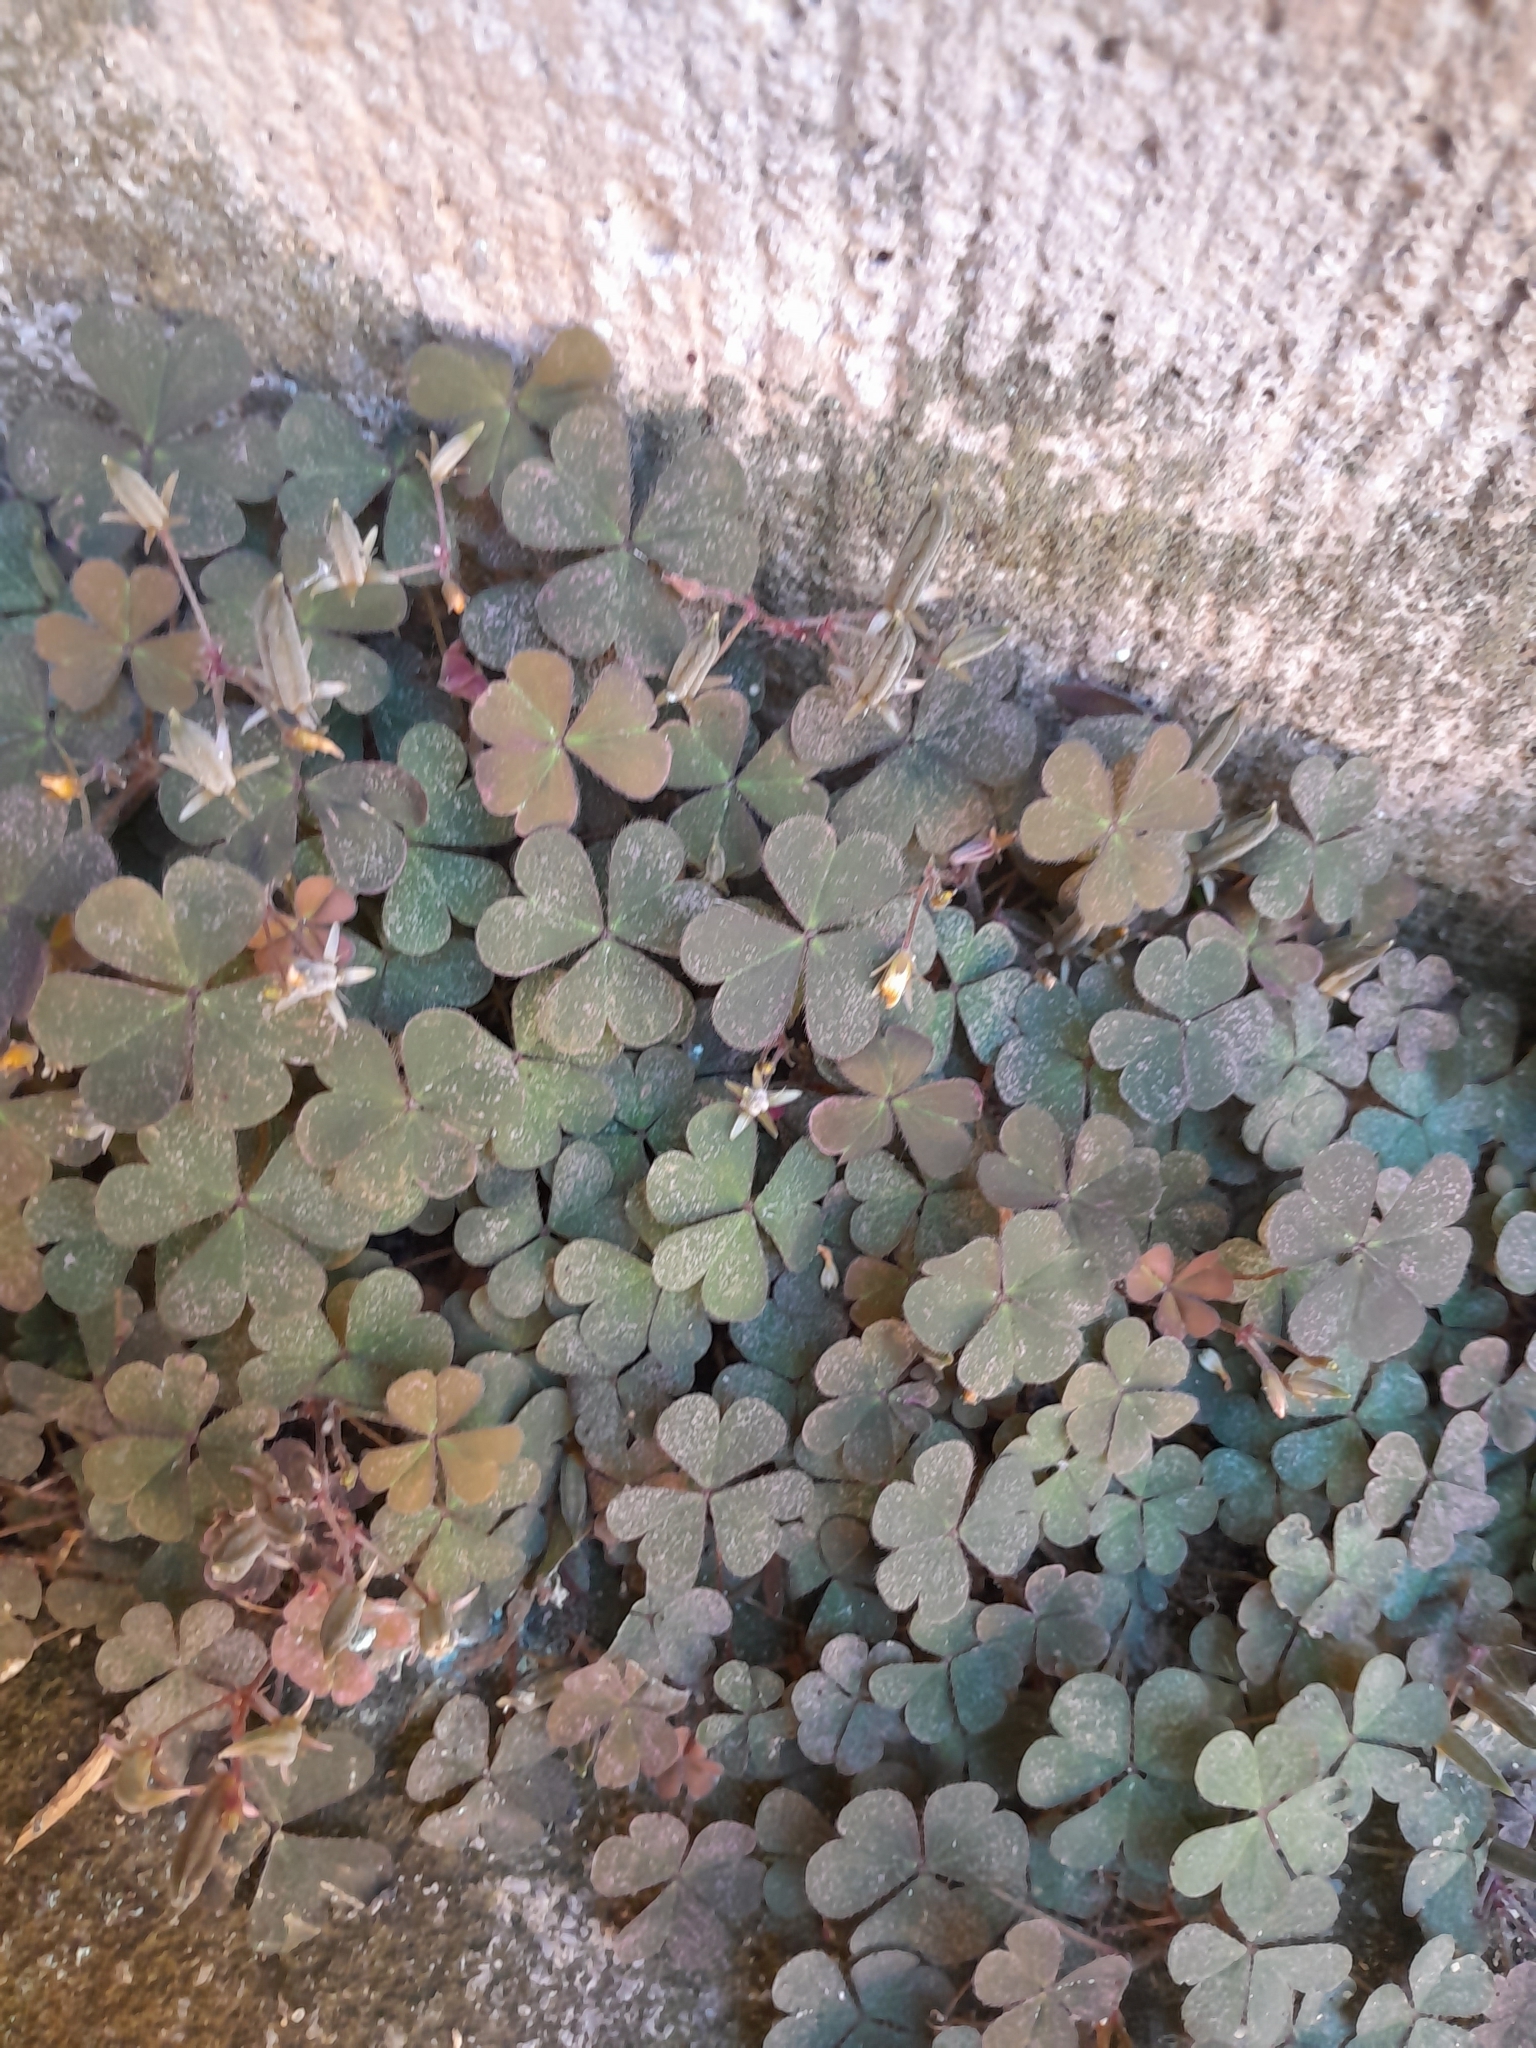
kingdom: Plantae
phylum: Tracheophyta
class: Magnoliopsida
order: Oxalidales
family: Oxalidaceae
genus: Oxalis
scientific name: Oxalis corniculata
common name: Procumbent yellow-sorrel
